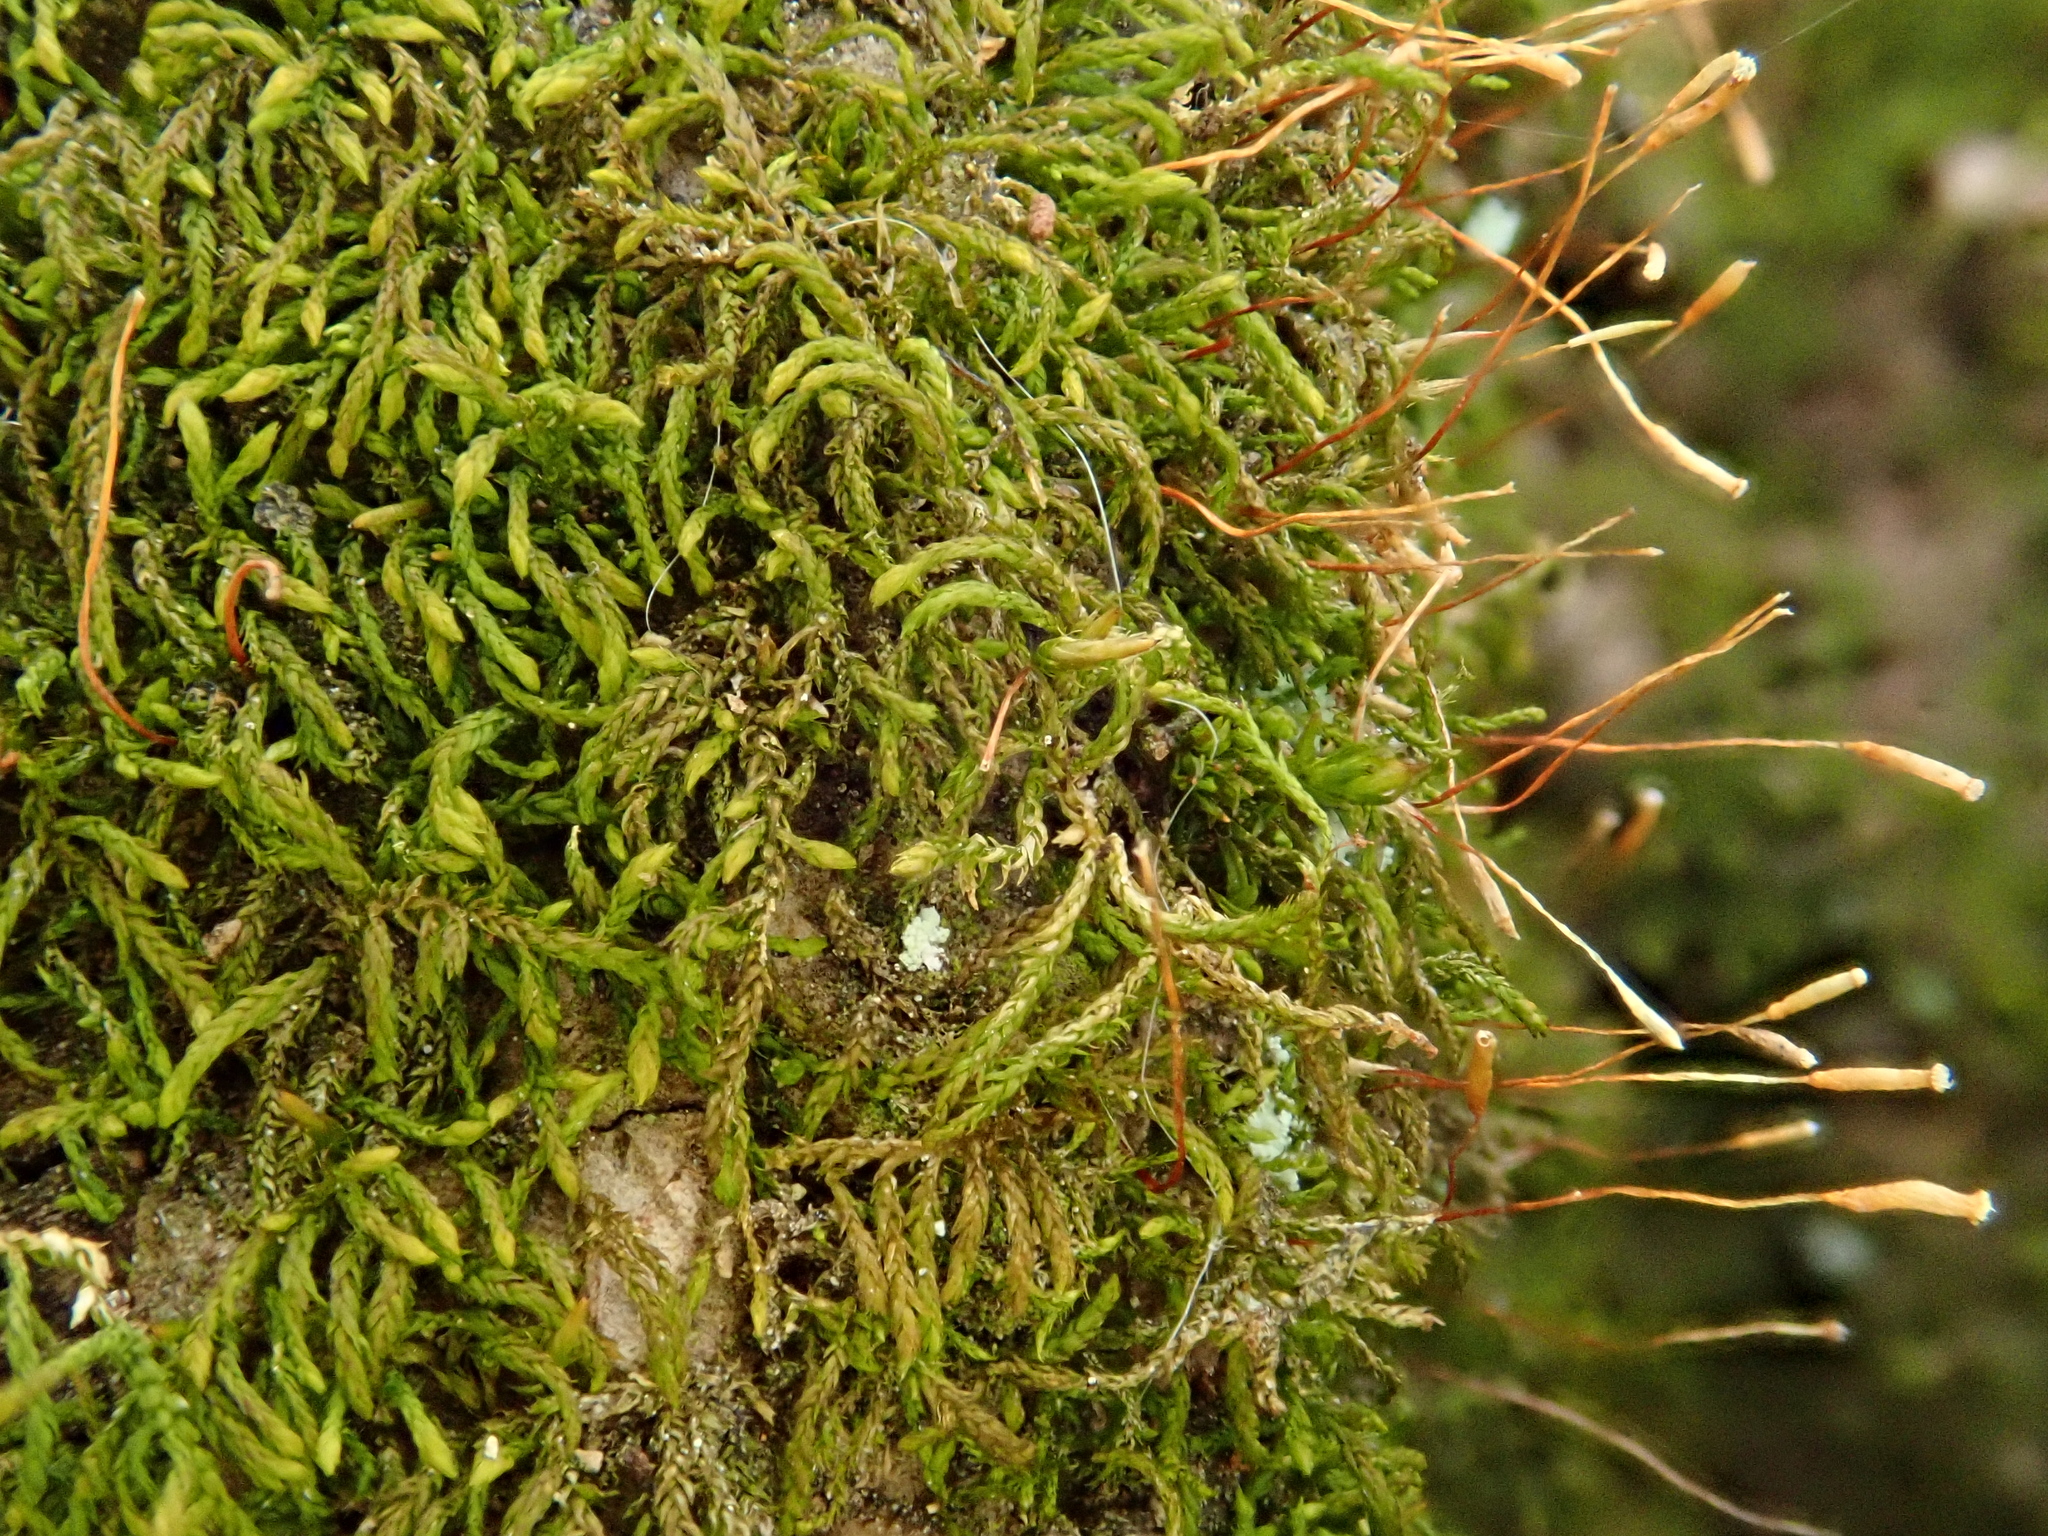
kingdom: Plantae
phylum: Bryophyta
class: Bryopsida
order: Hypnales
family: Leskeaceae
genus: Leskea
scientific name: Leskea polycarpa
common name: Many-fruited leske's moss
